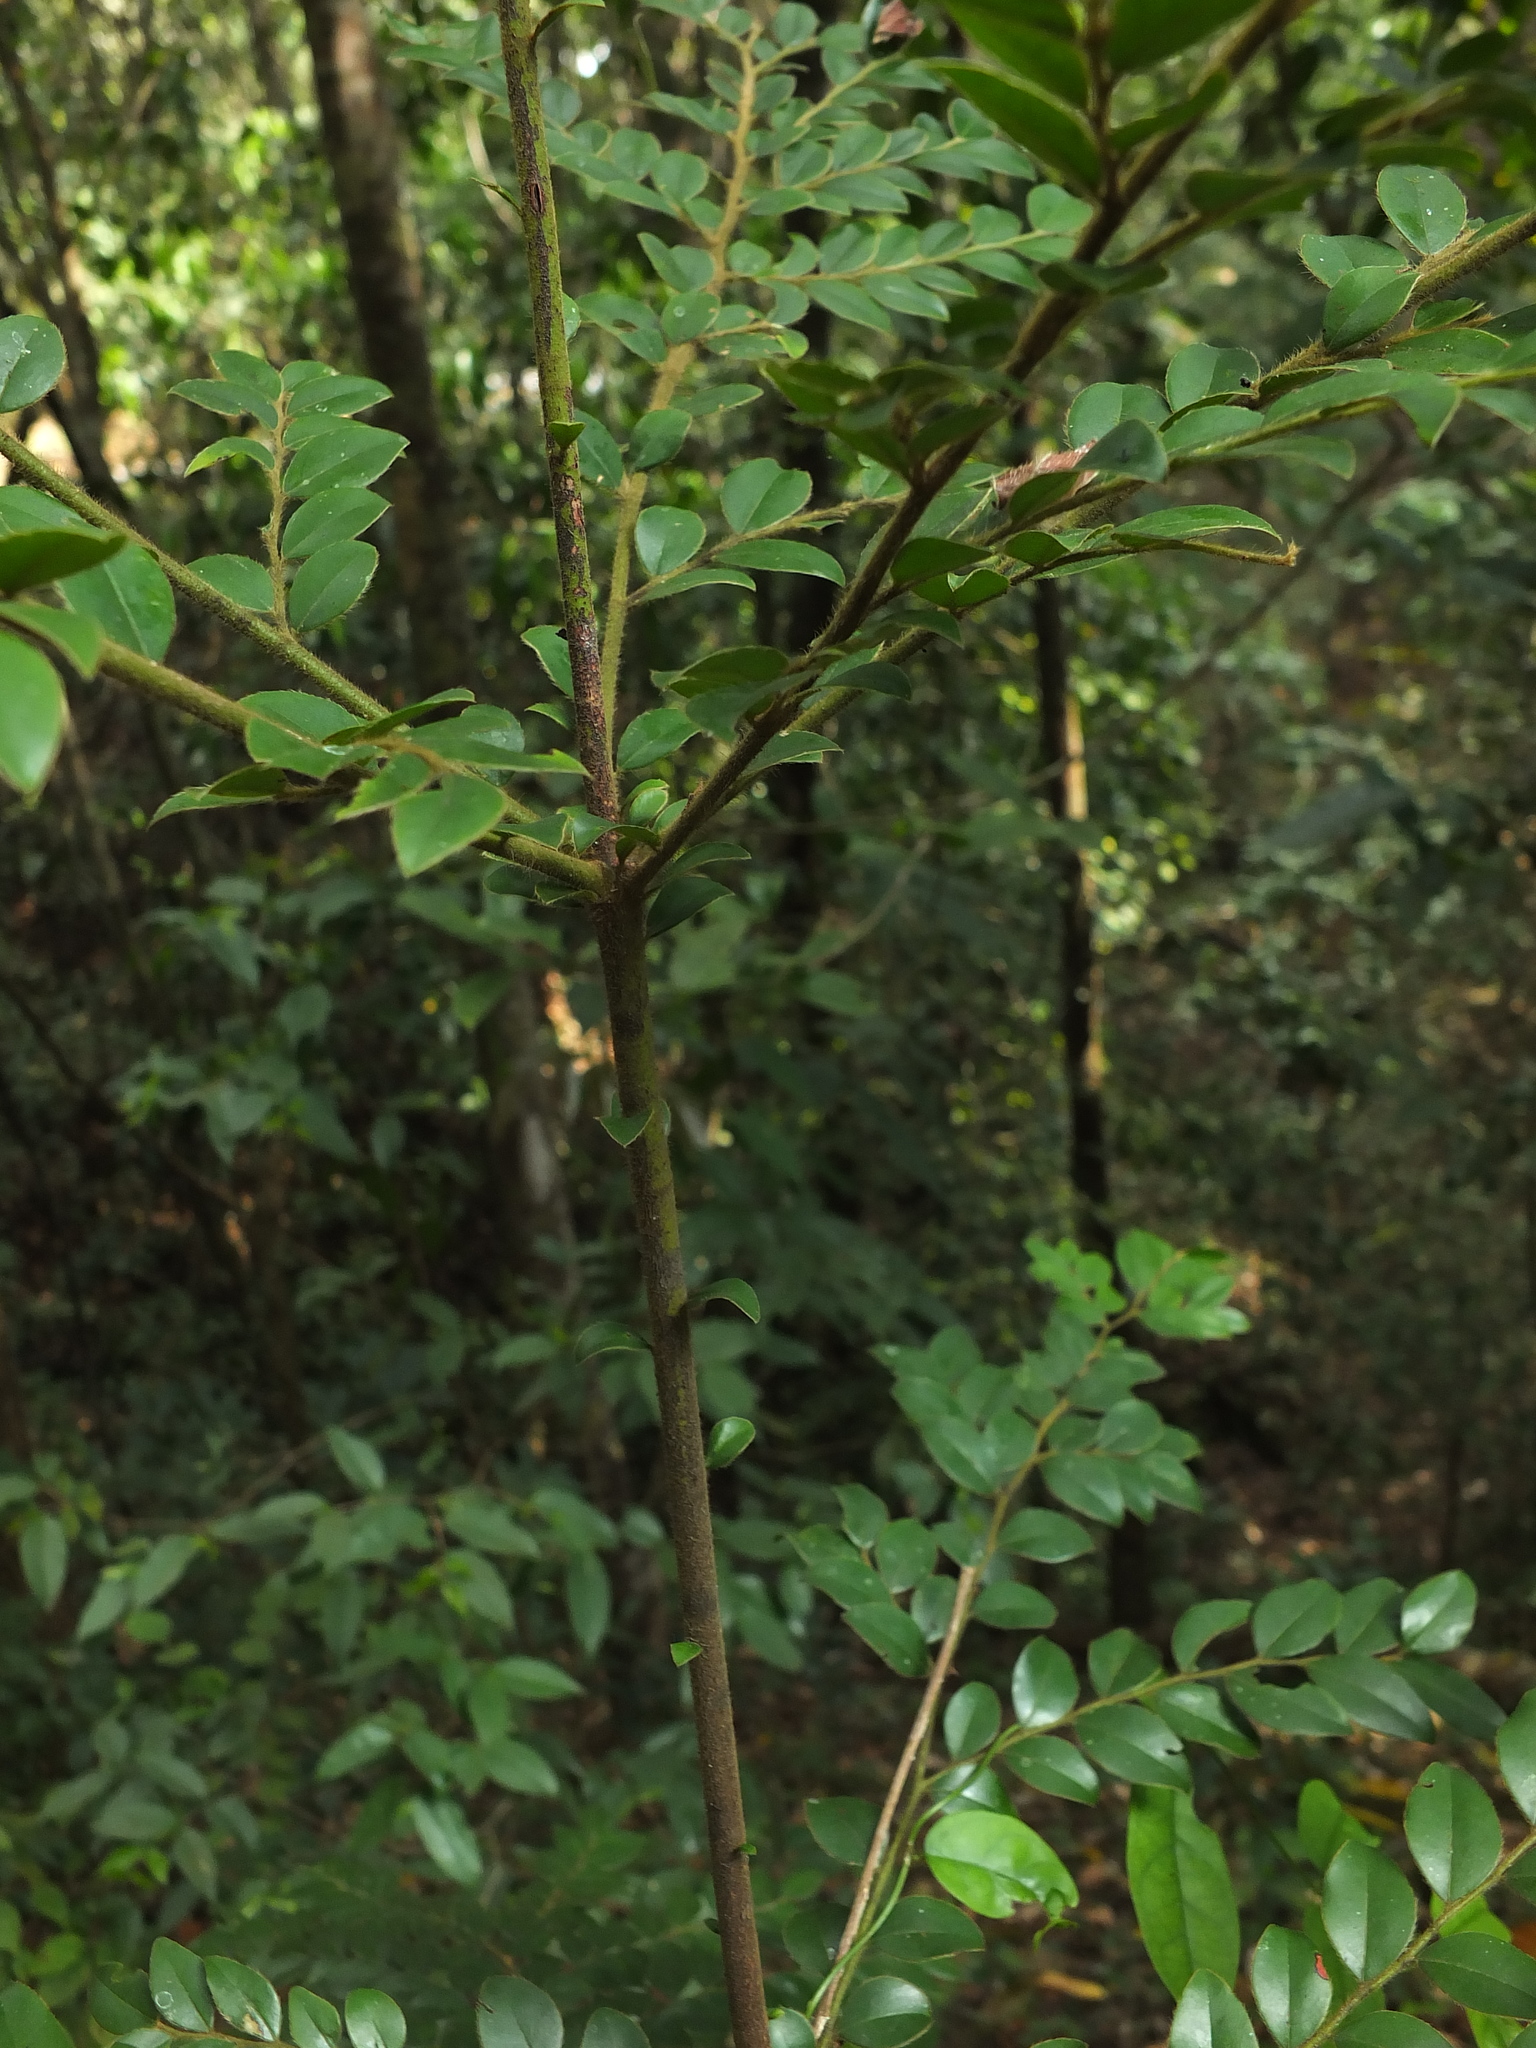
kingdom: Plantae
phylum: Tracheophyta
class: Magnoliopsida
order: Ericales
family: Ebenaceae
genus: Diospyros
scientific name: Diospyros buxifolia
